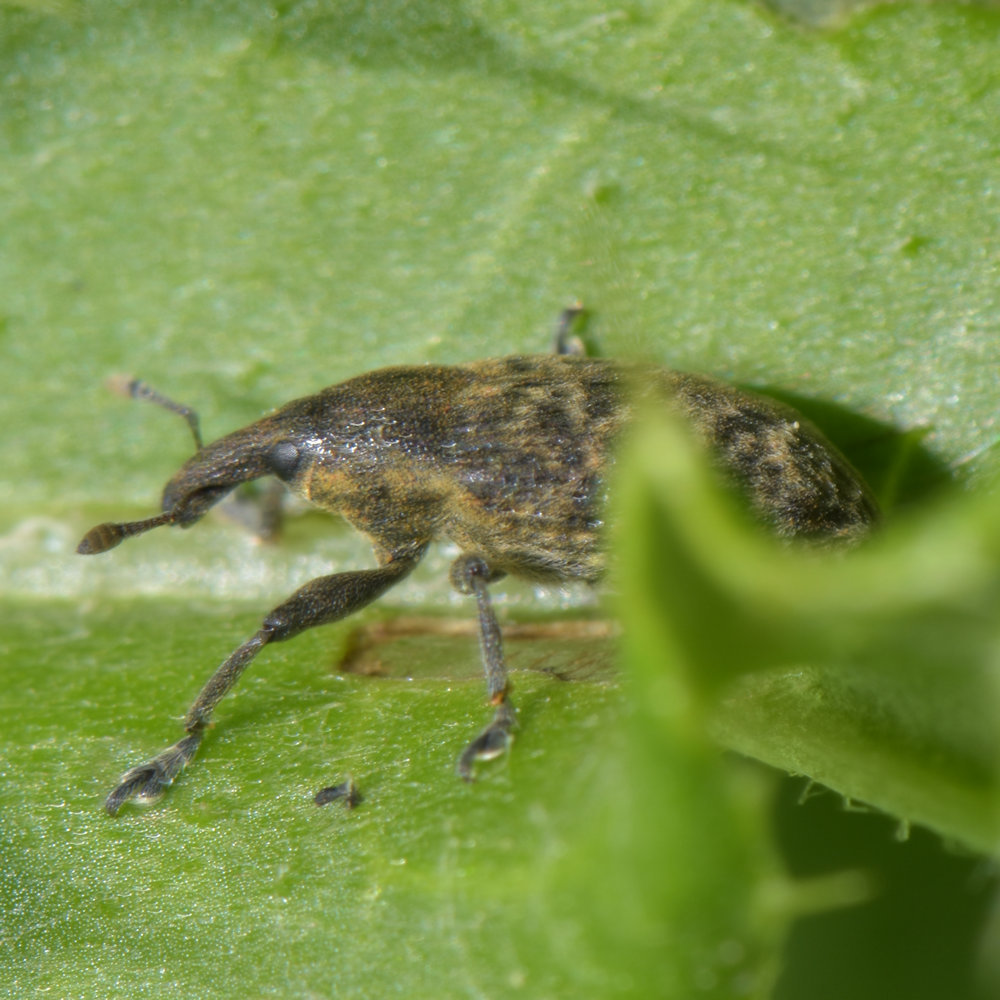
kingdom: Animalia
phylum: Arthropoda
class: Insecta
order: Coleoptera
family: Curculionidae
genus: Larinus
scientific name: Larinus carlinae
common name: Weevil
